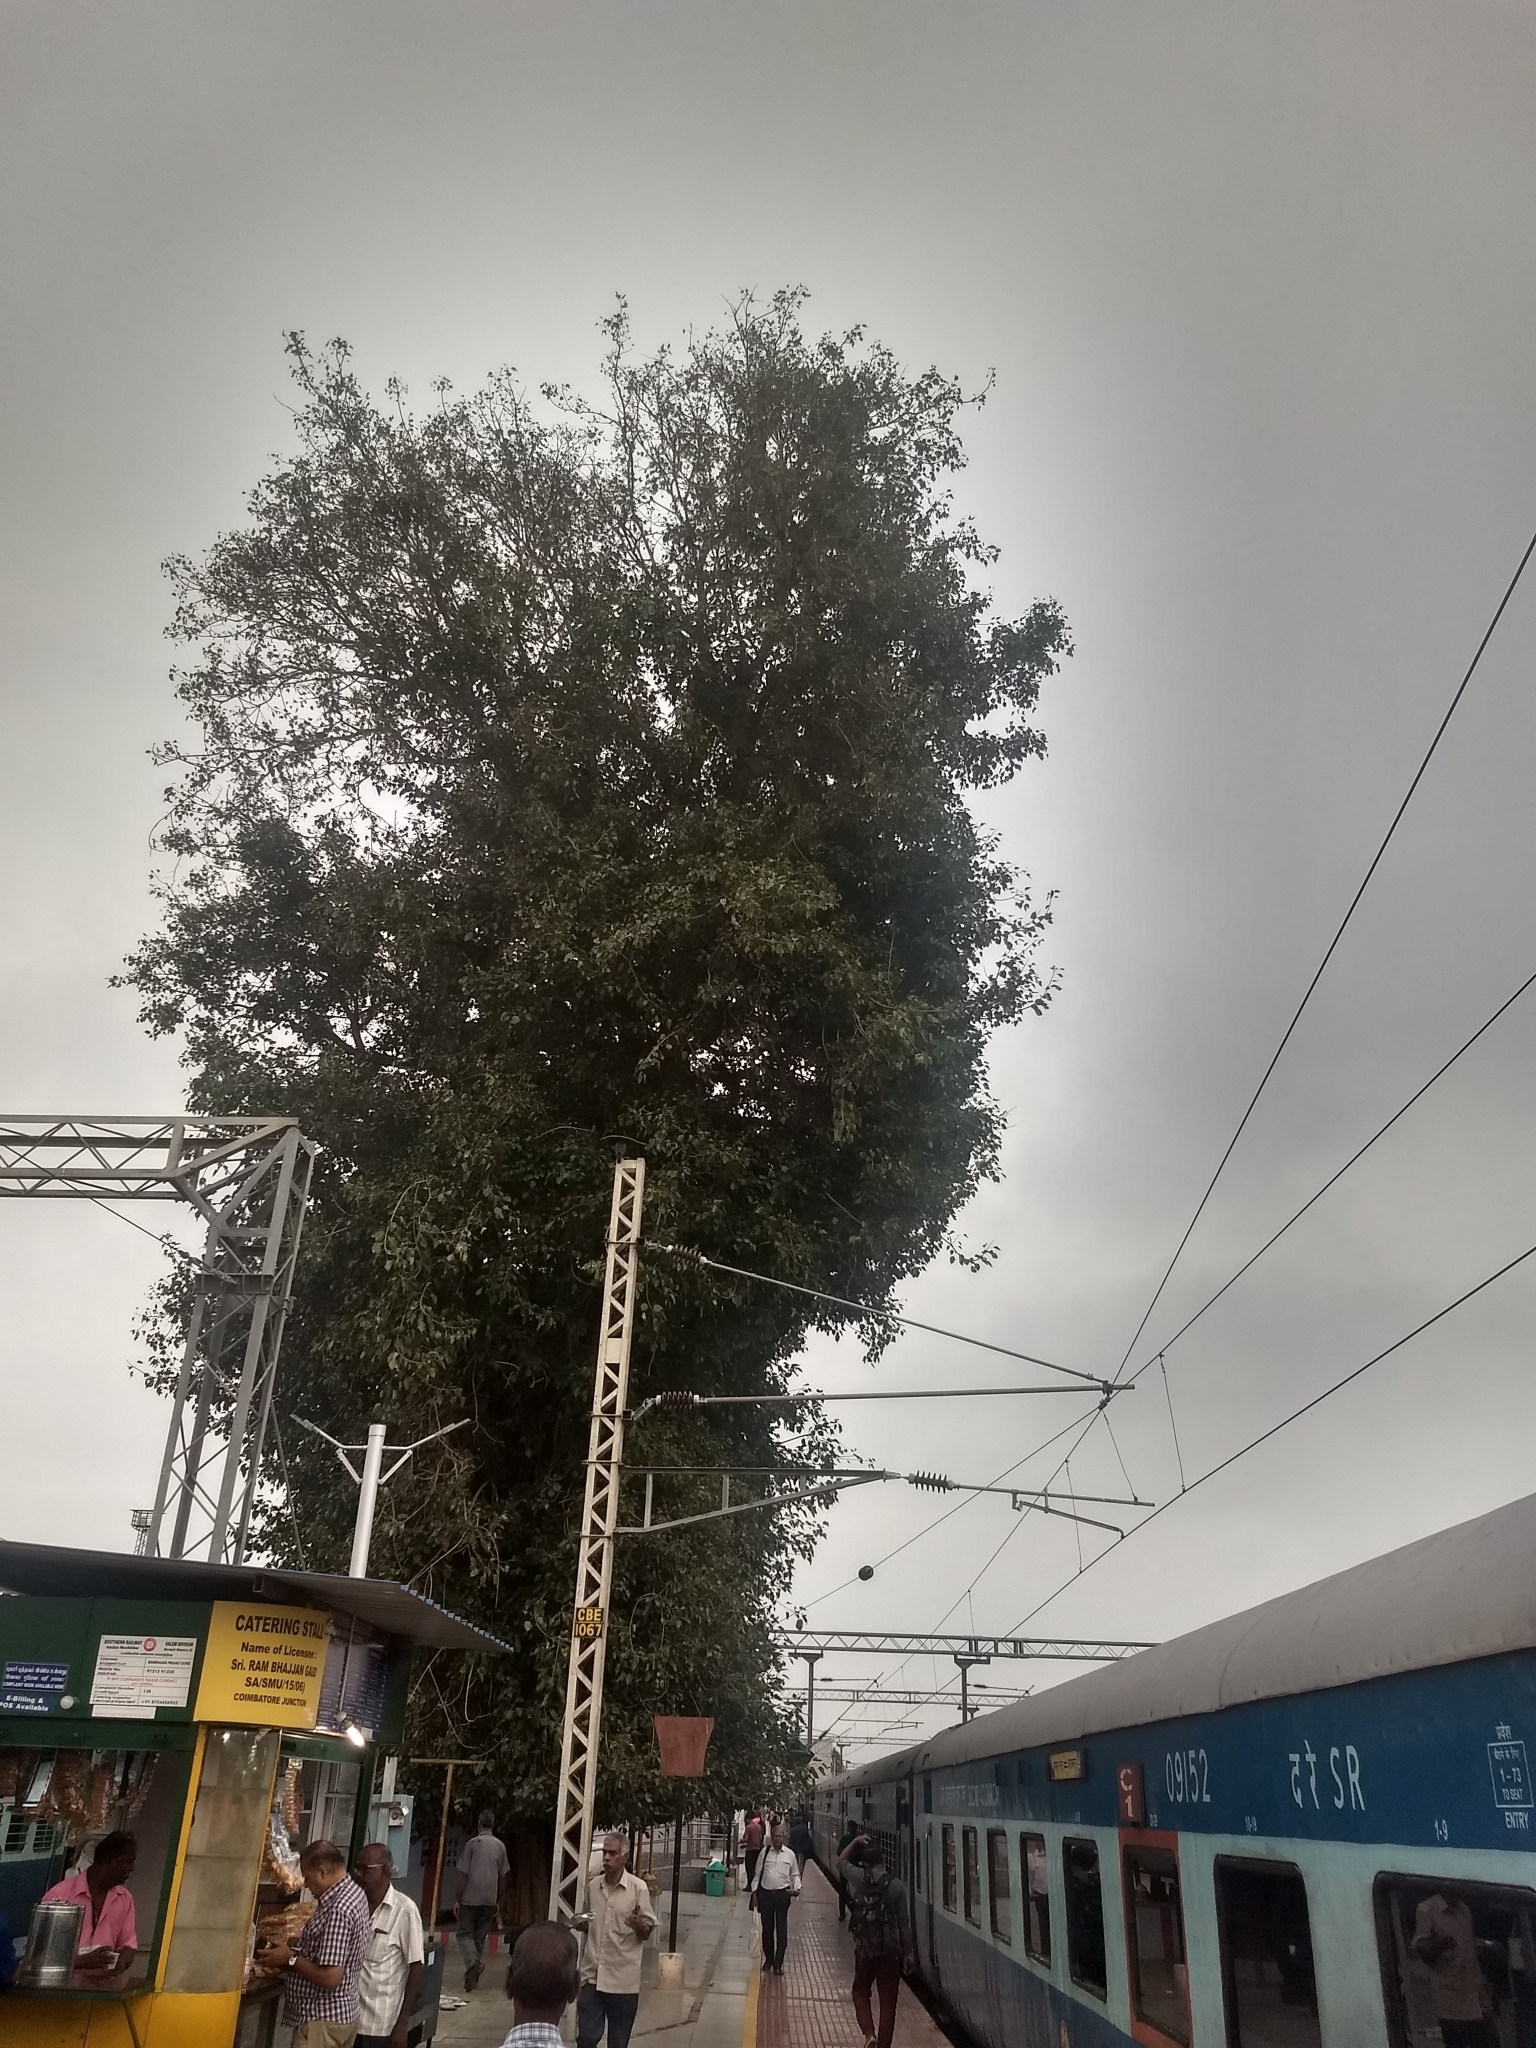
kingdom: Plantae
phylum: Tracheophyta
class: Magnoliopsida
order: Rosales
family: Moraceae
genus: Ficus
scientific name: Ficus religiosa
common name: Bodhi tree
